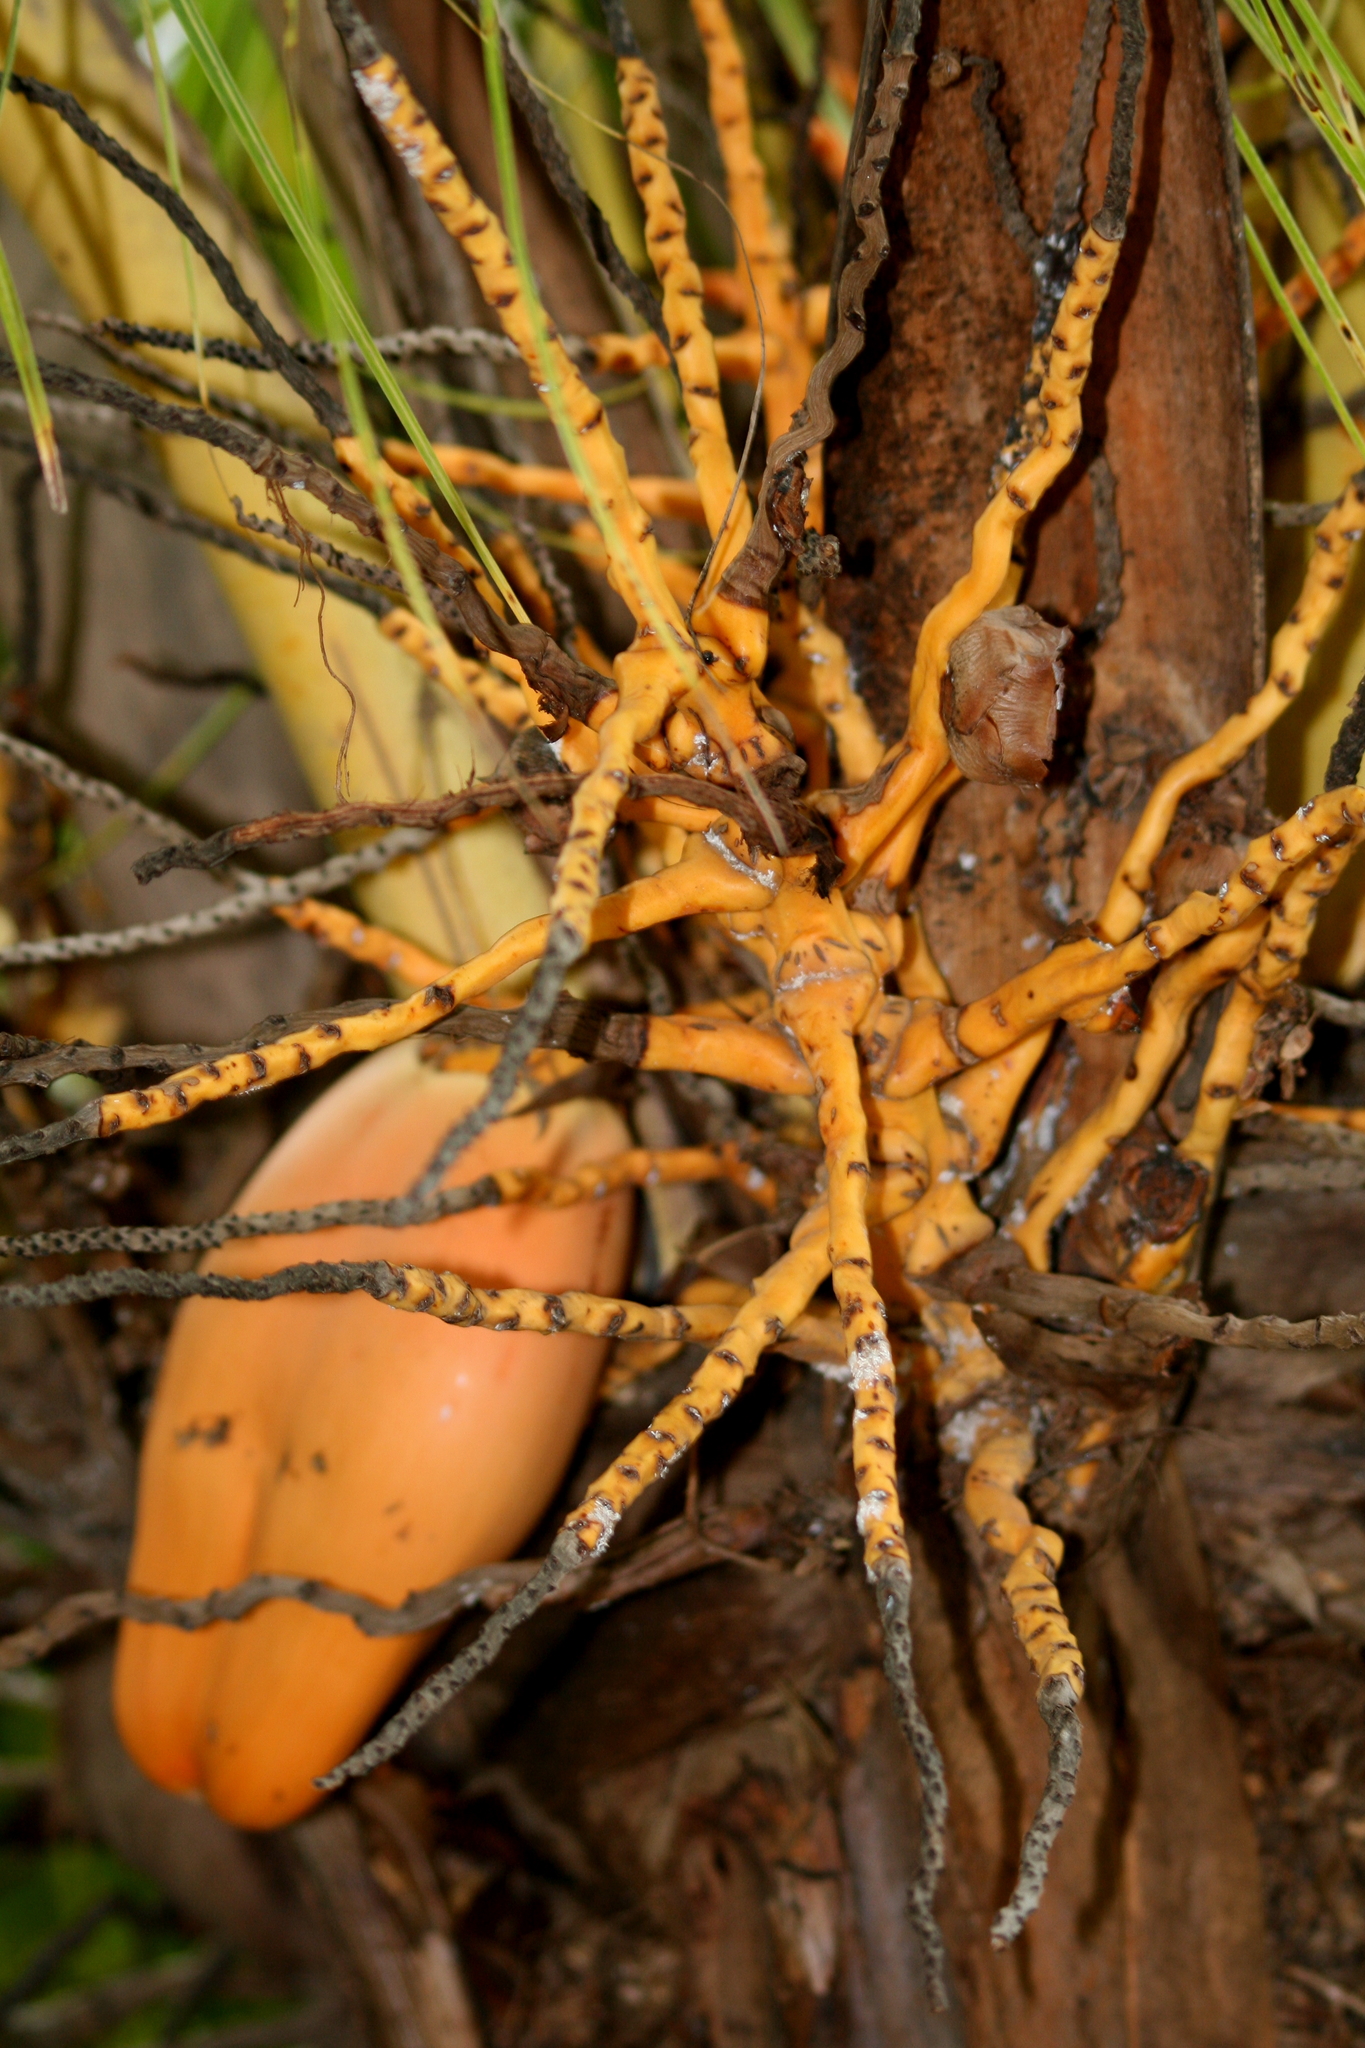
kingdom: Plantae
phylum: Tracheophyta
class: Liliopsida
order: Arecales
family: Arecaceae
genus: Cocos
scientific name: Cocos nucifera
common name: Coconut palm
